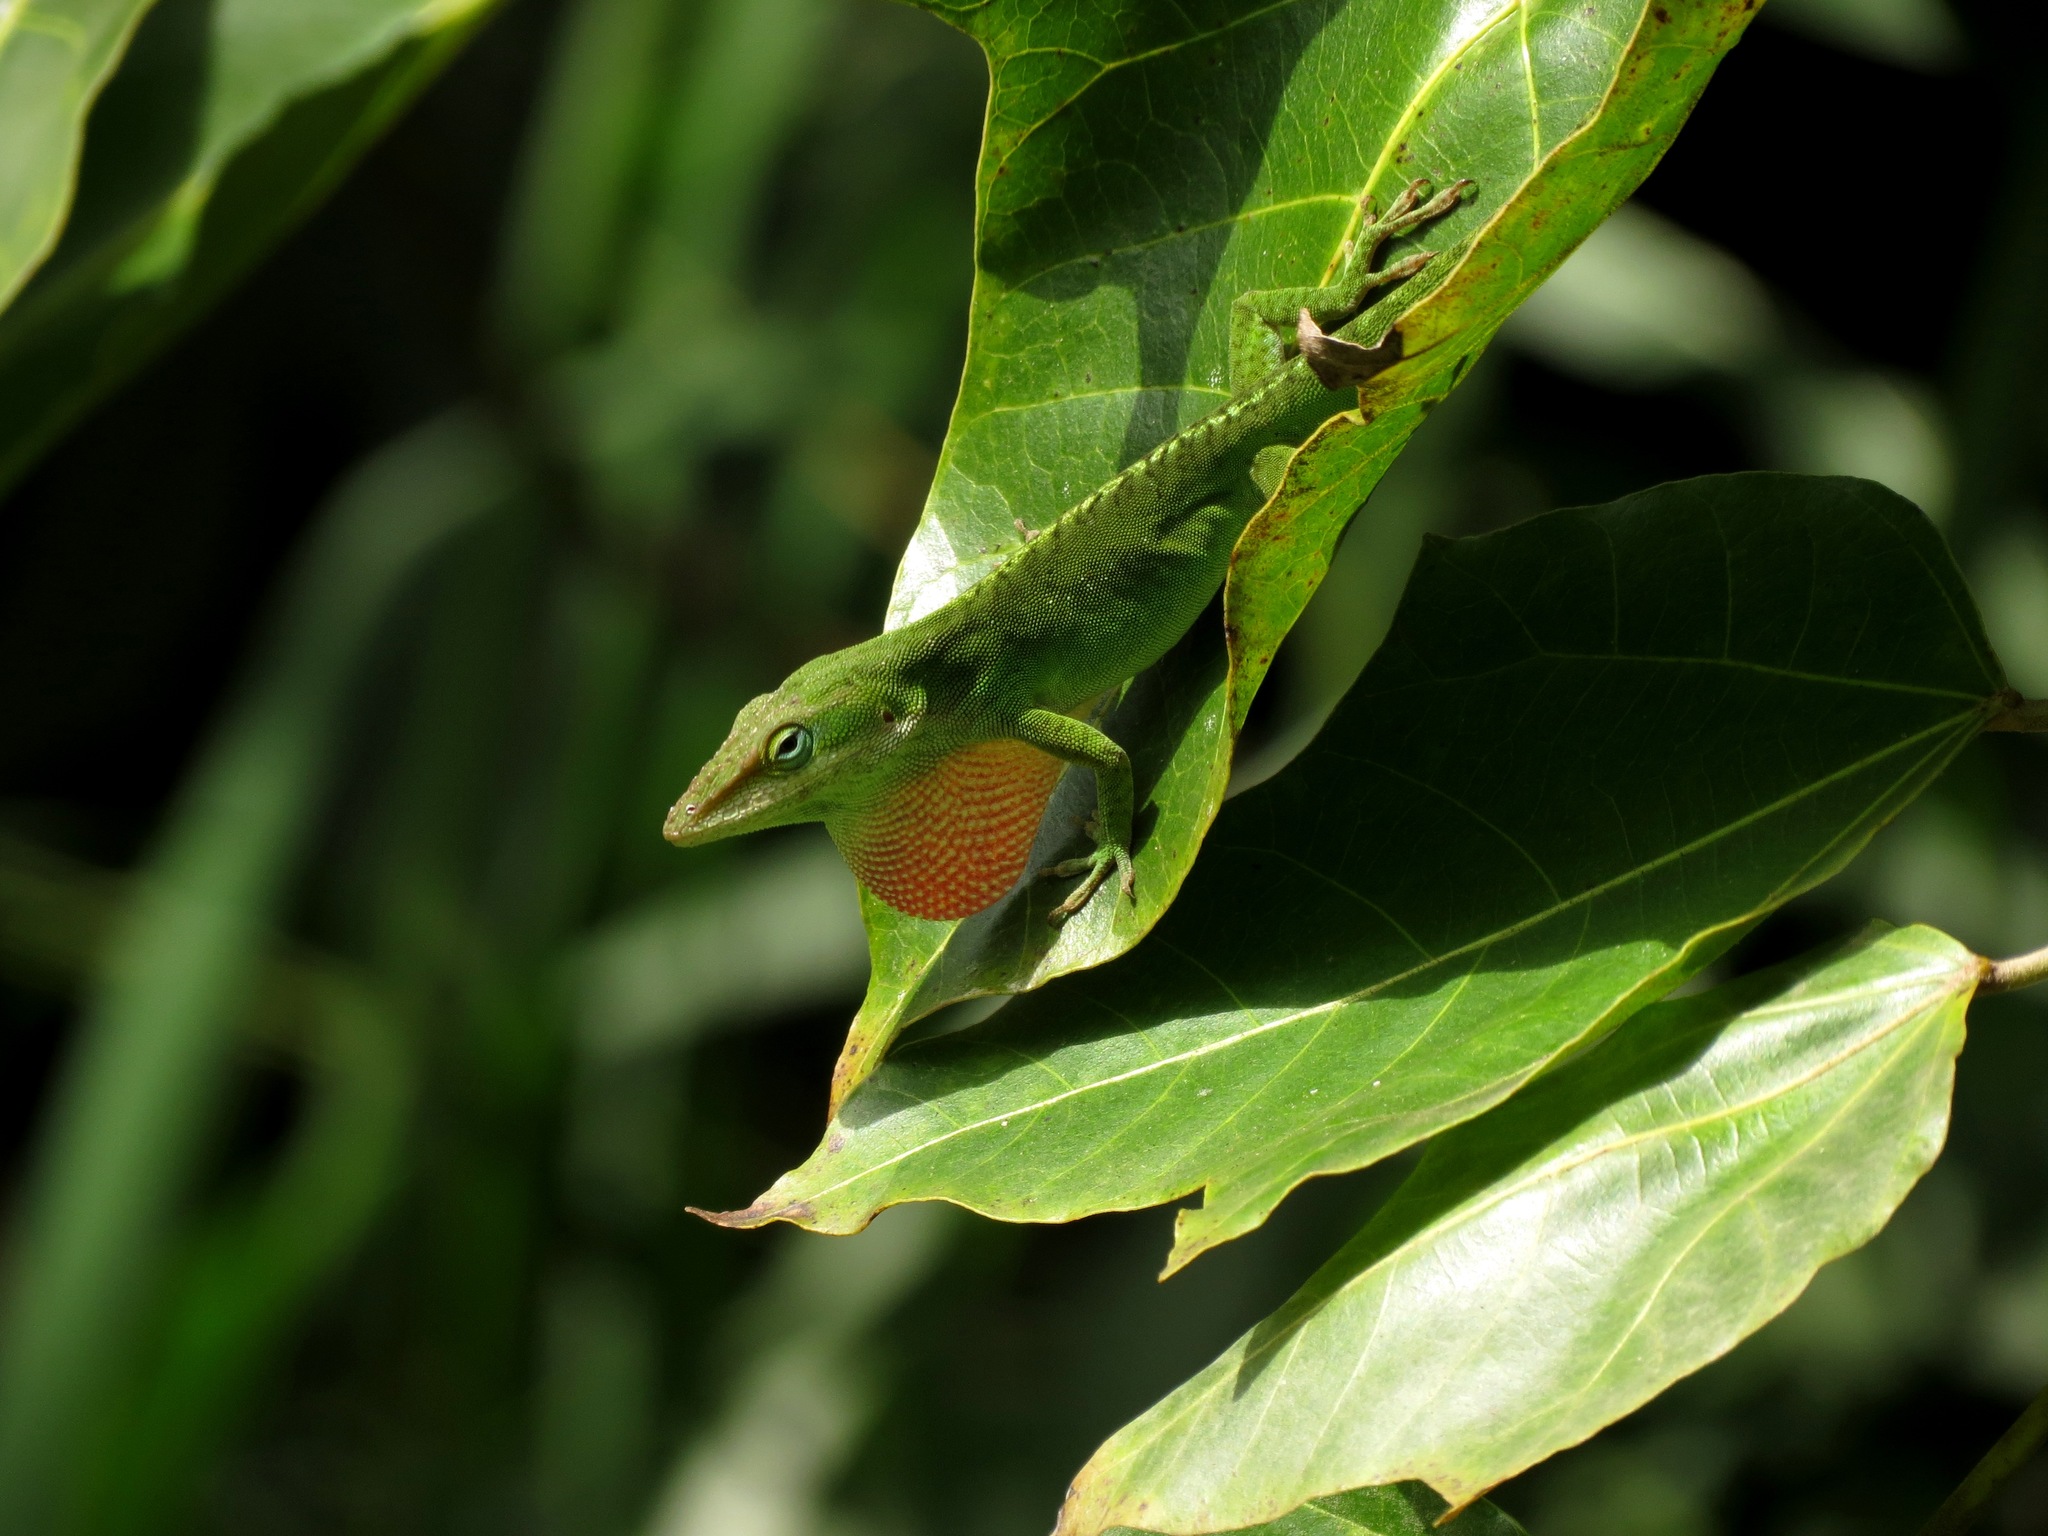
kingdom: Animalia
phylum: Chordata
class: Squamata
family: Dactyloidae
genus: Anolis
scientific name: Anolis carolinensis
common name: Green anole
